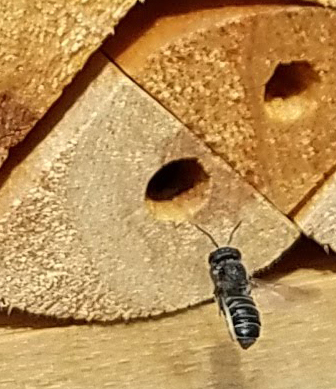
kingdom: Animalia
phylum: Arthropoda
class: Insecta
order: Hymenoptera
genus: Megachiloides
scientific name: Megachiloides
